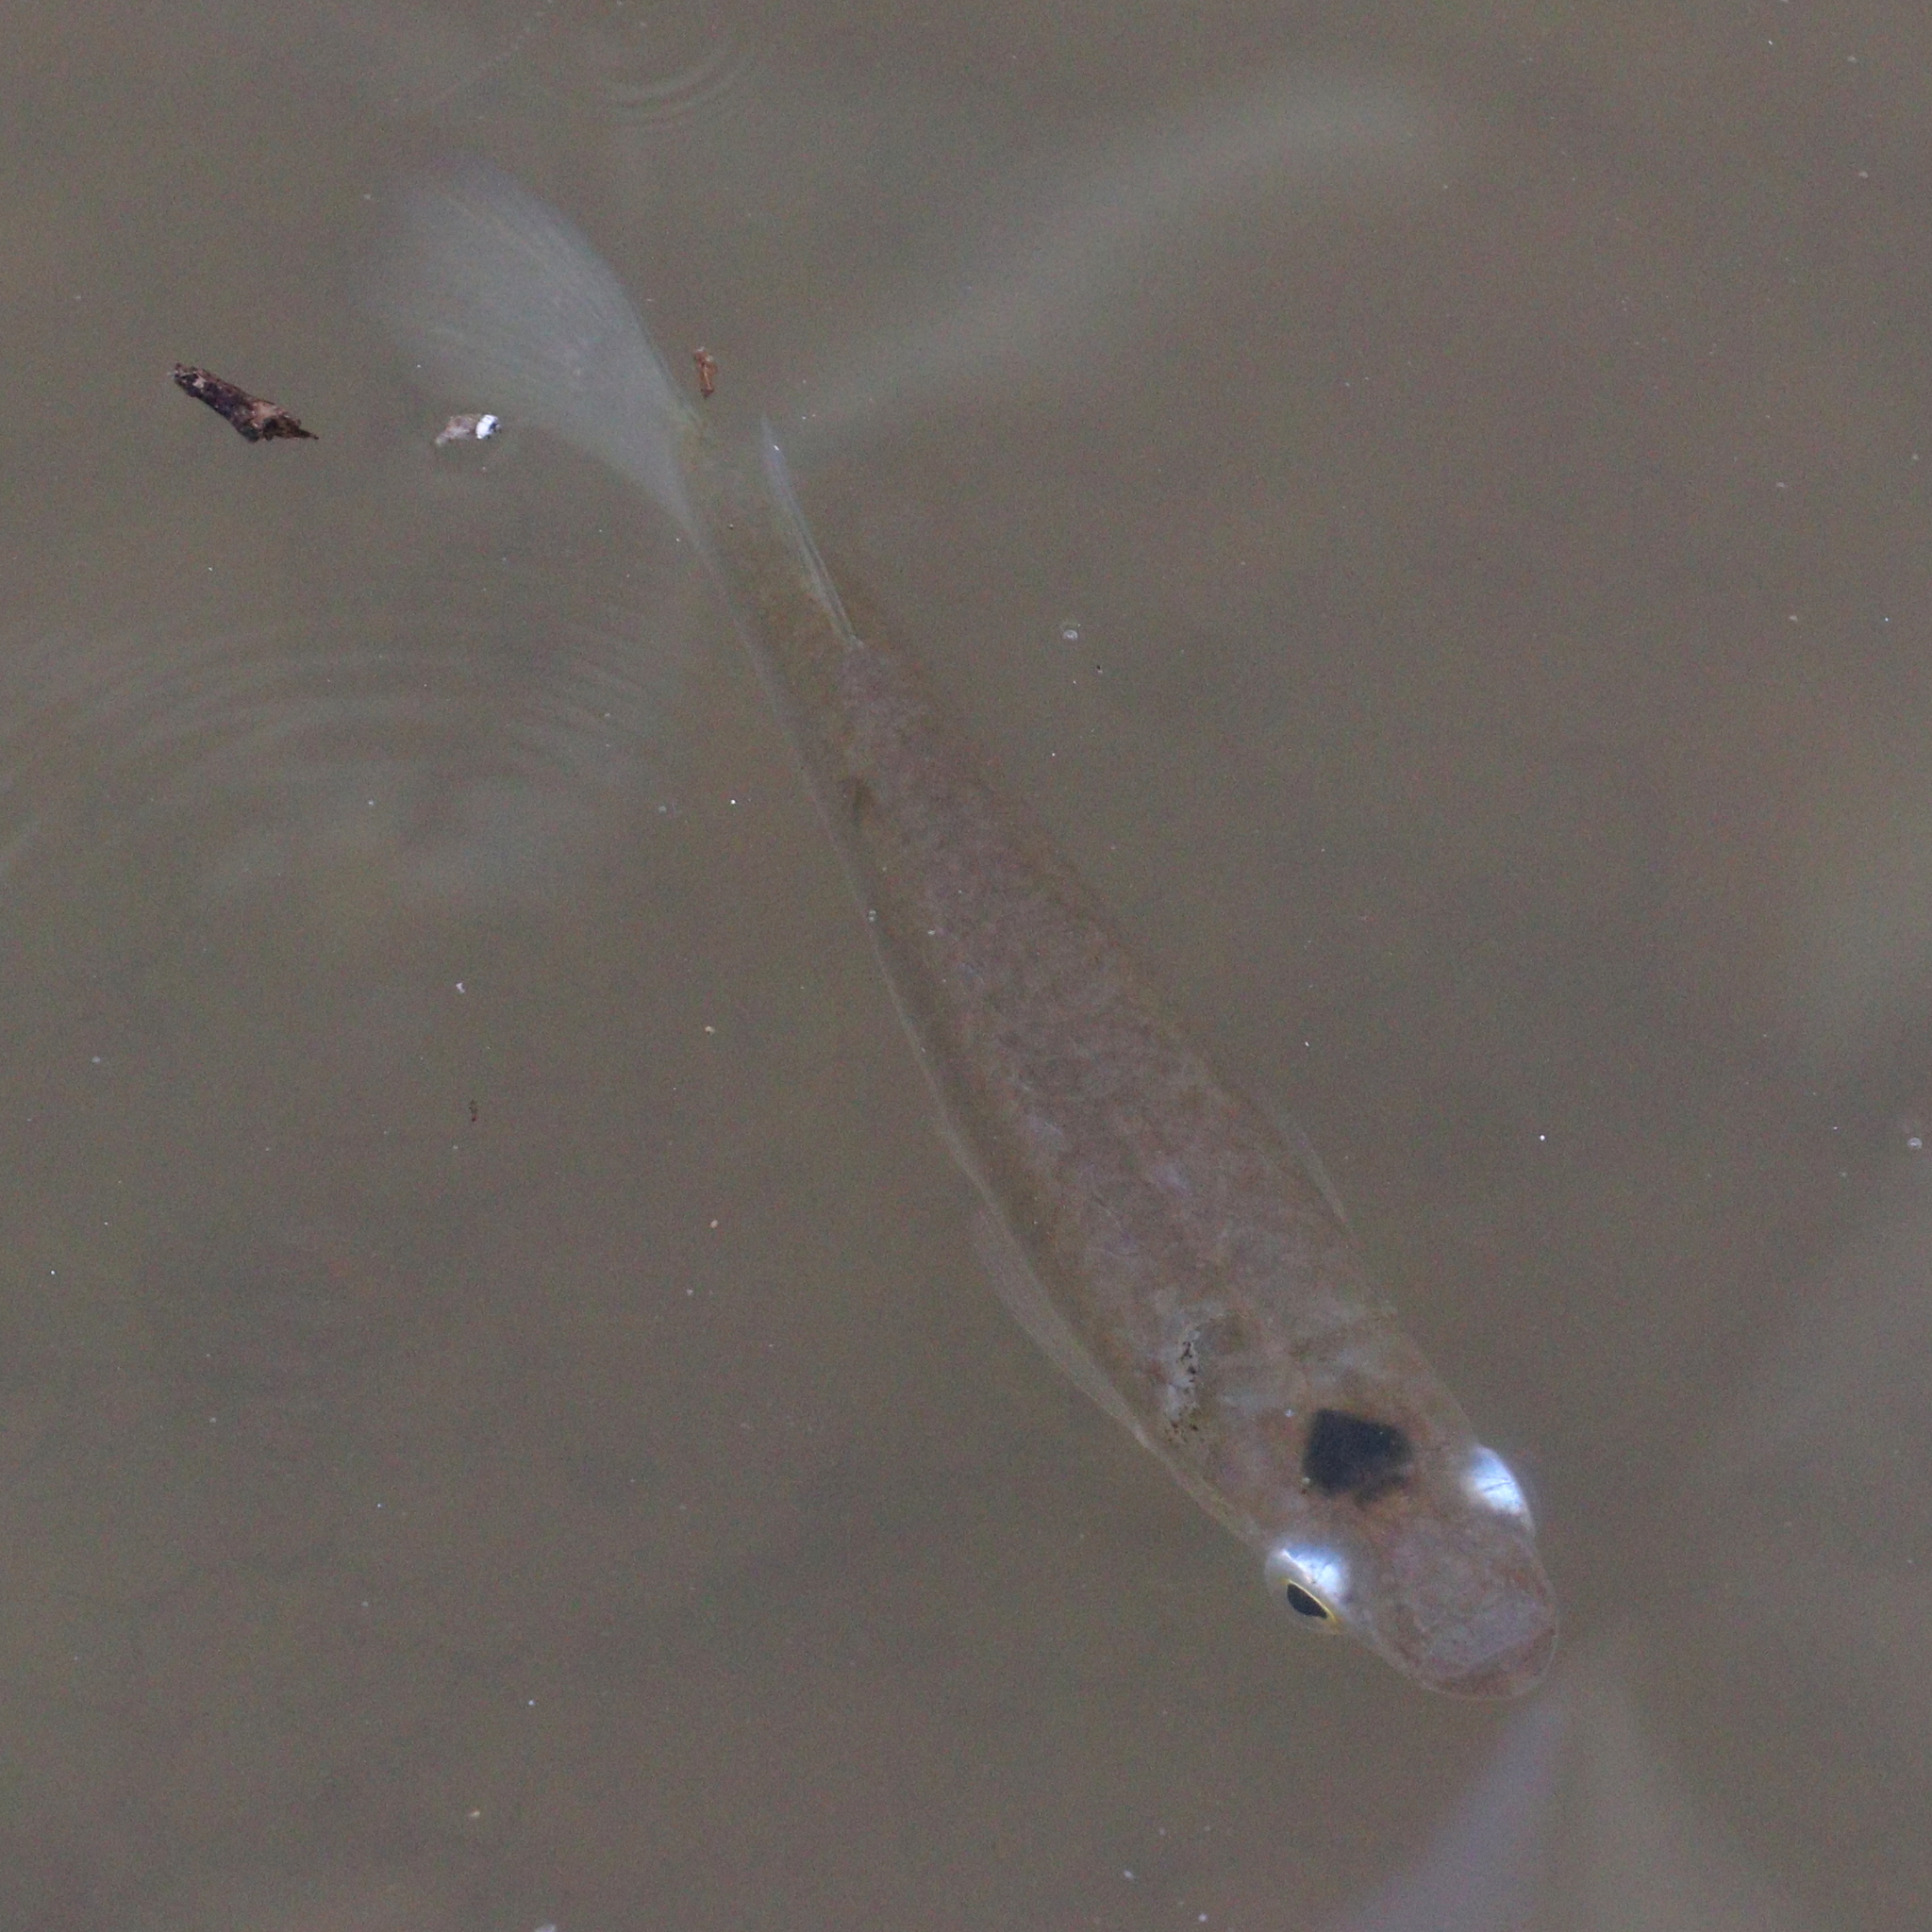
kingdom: Animalia
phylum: Chordata
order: Cyprinodontiformes
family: Anablepidae
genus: Oxyzygonectes
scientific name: Oxyzygonectes dovii
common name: White-eye
